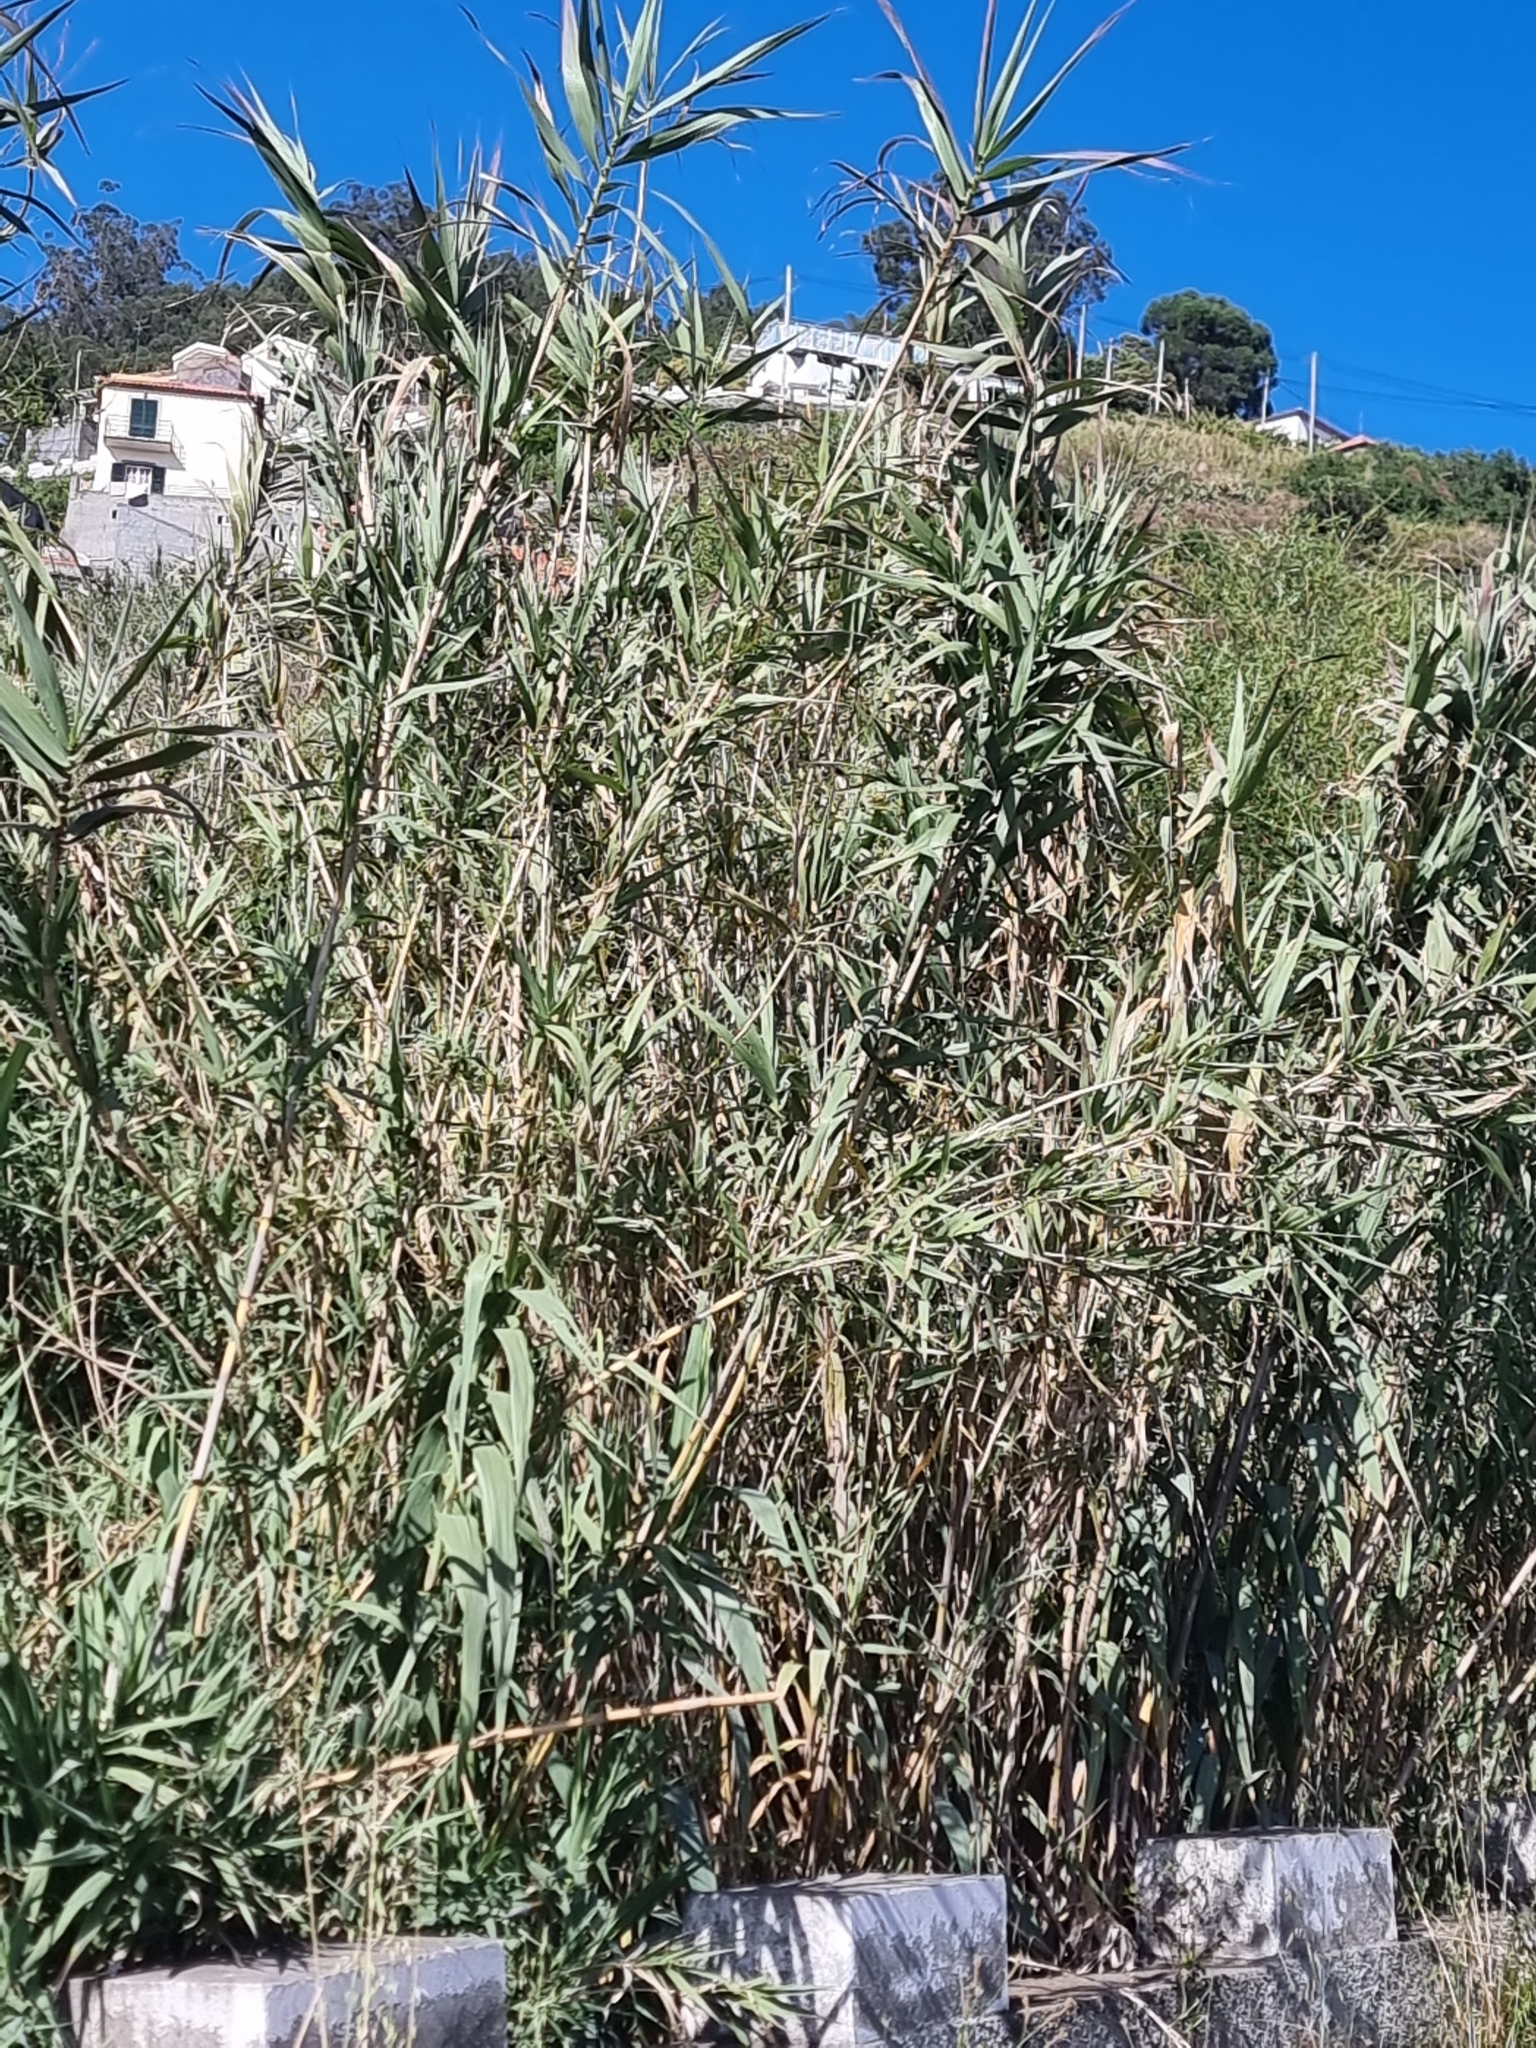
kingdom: Plantae
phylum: Tracheophyta
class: Liliopsida
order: Poales
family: Poaceae
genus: Arundo
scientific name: Arundo donax
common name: Giant reed
